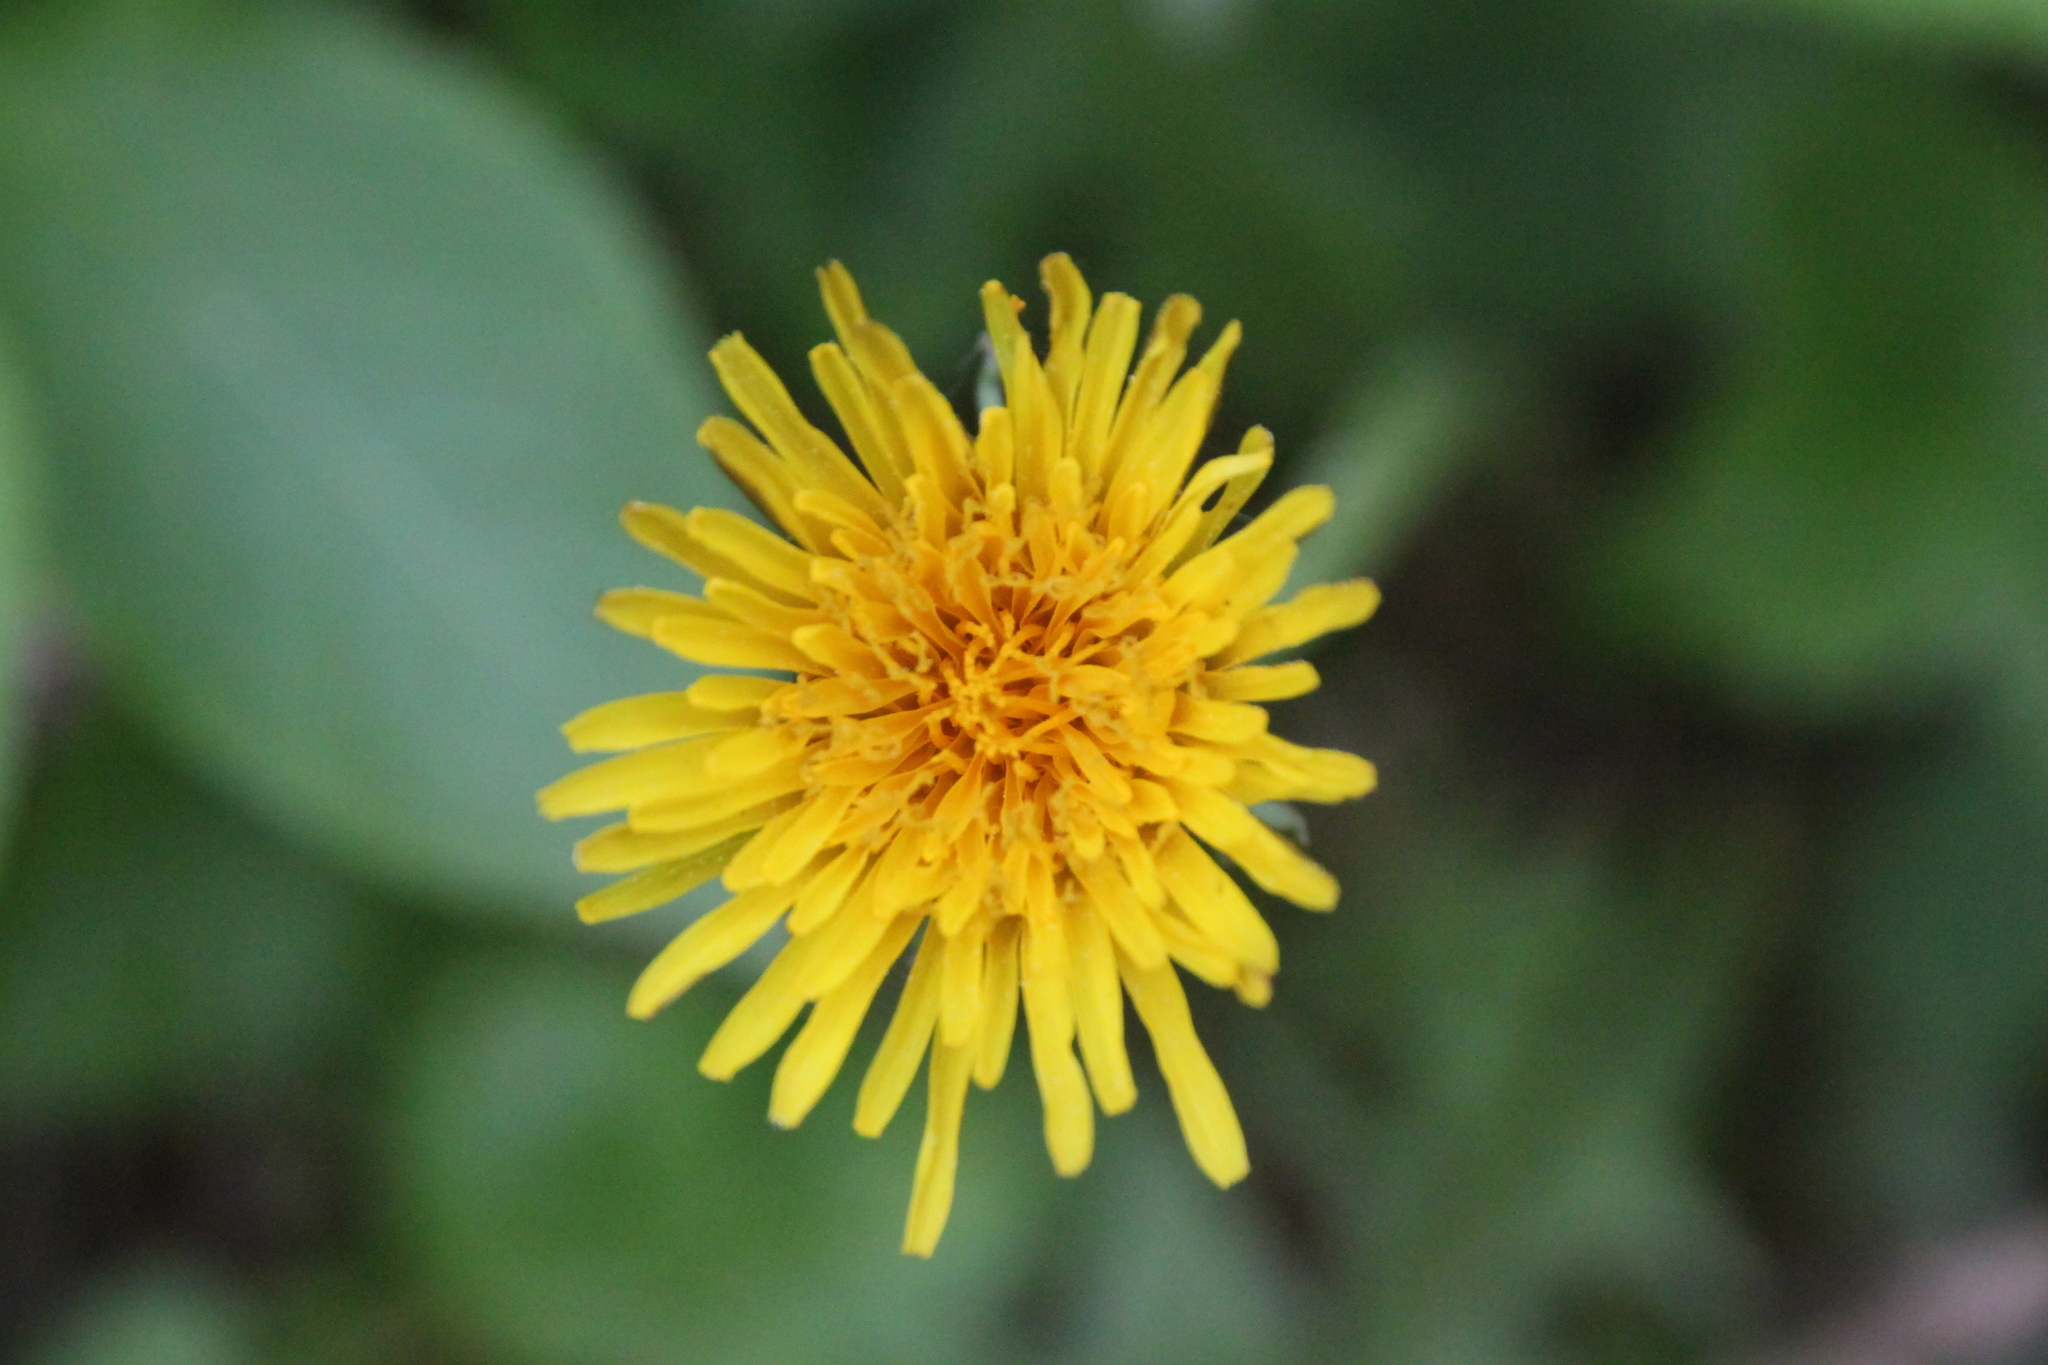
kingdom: Plantae
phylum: Tracheophyta
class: Magnoliopsida
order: Asterales
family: Asteraceae
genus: Taraxacum
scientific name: Taraxacum officinale
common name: Common dandelion
